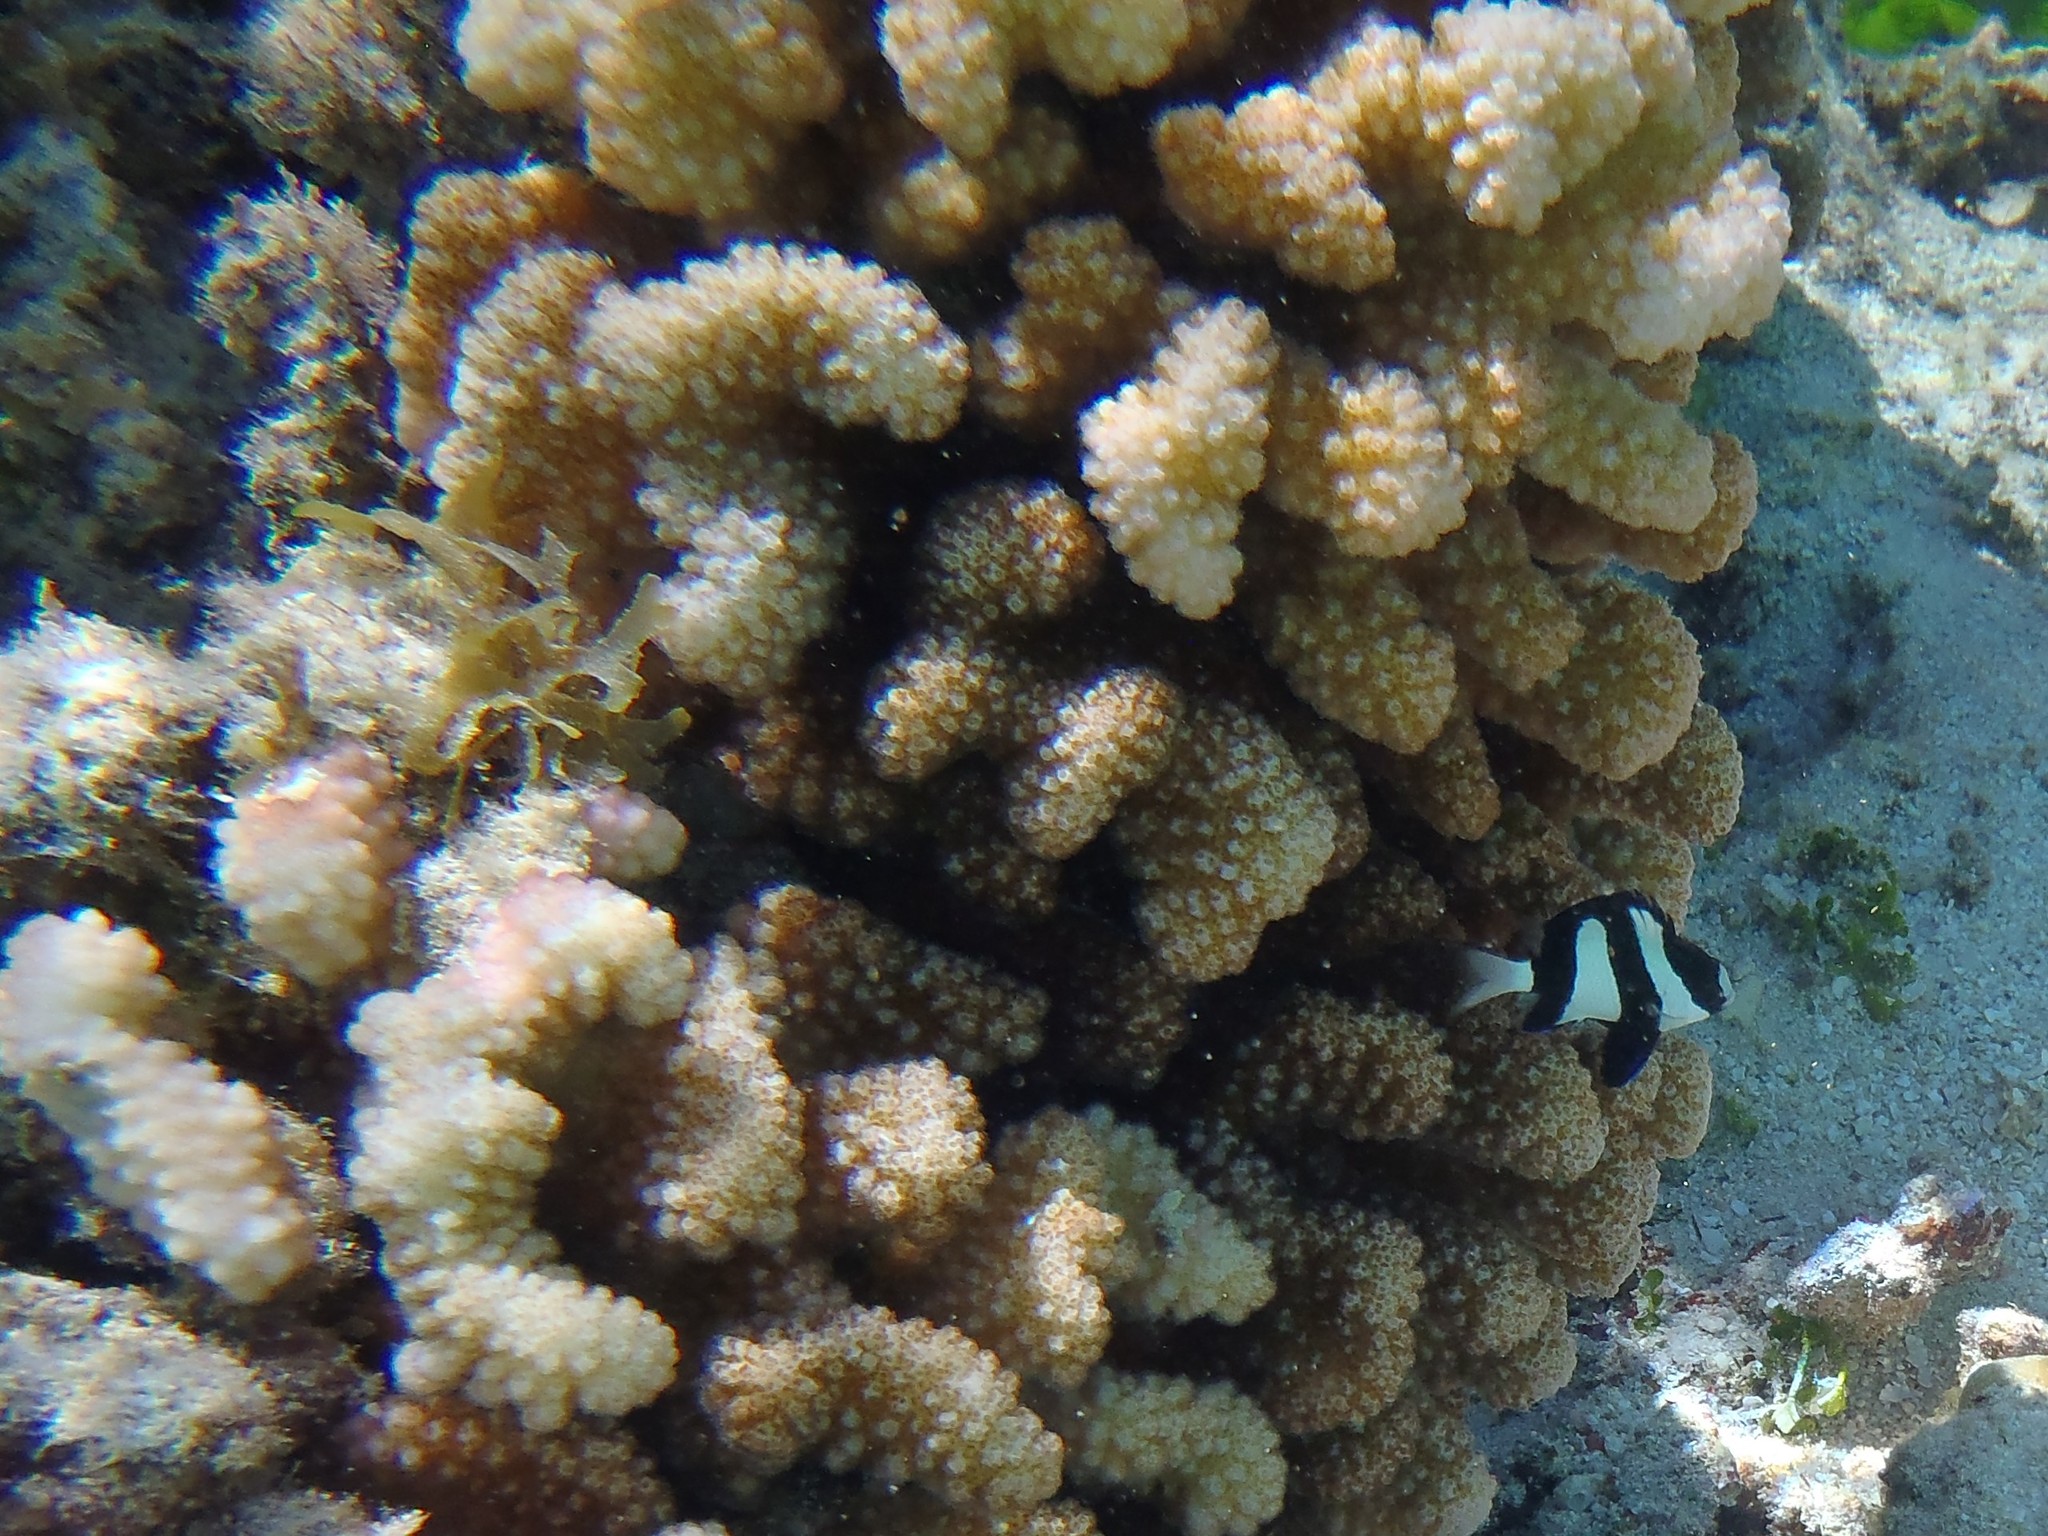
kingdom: Animalia
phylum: Chordata
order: Perciformes
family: Pomacentridae
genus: Dascyllus
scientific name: Dascyllus aruanus
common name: Humbug dascyllus
